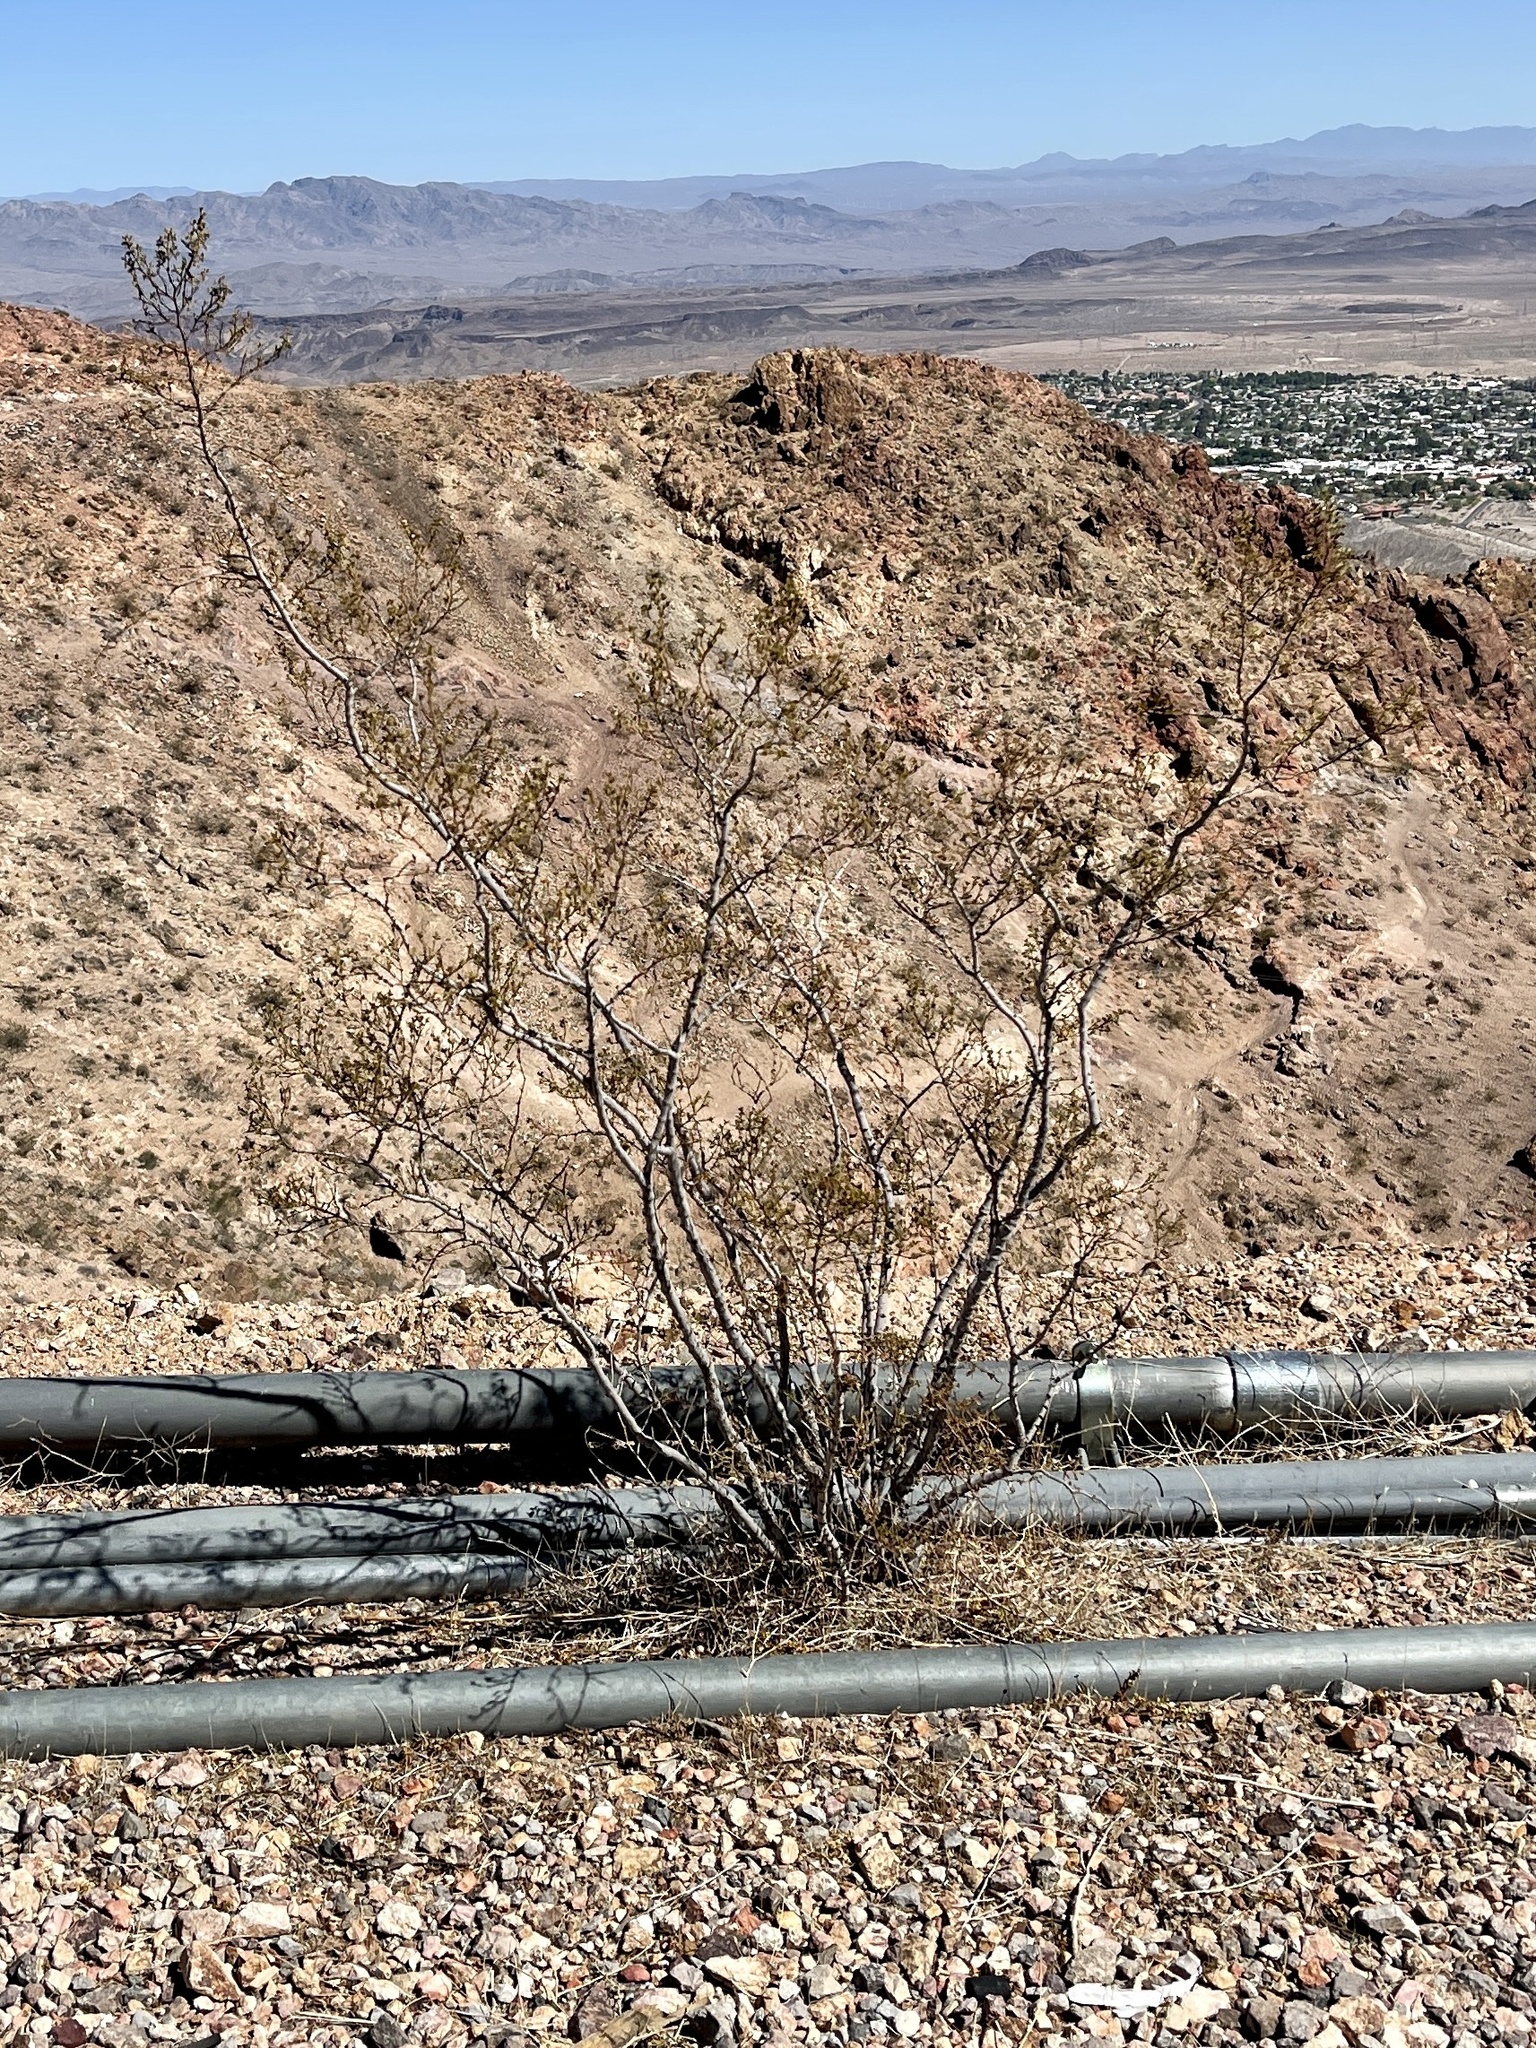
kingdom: Plantae
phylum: Tracheophyta
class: Magnoliopsida
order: Zygophyllales
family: Zygophyllaceae
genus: Larrea
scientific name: Larrea tridentata
